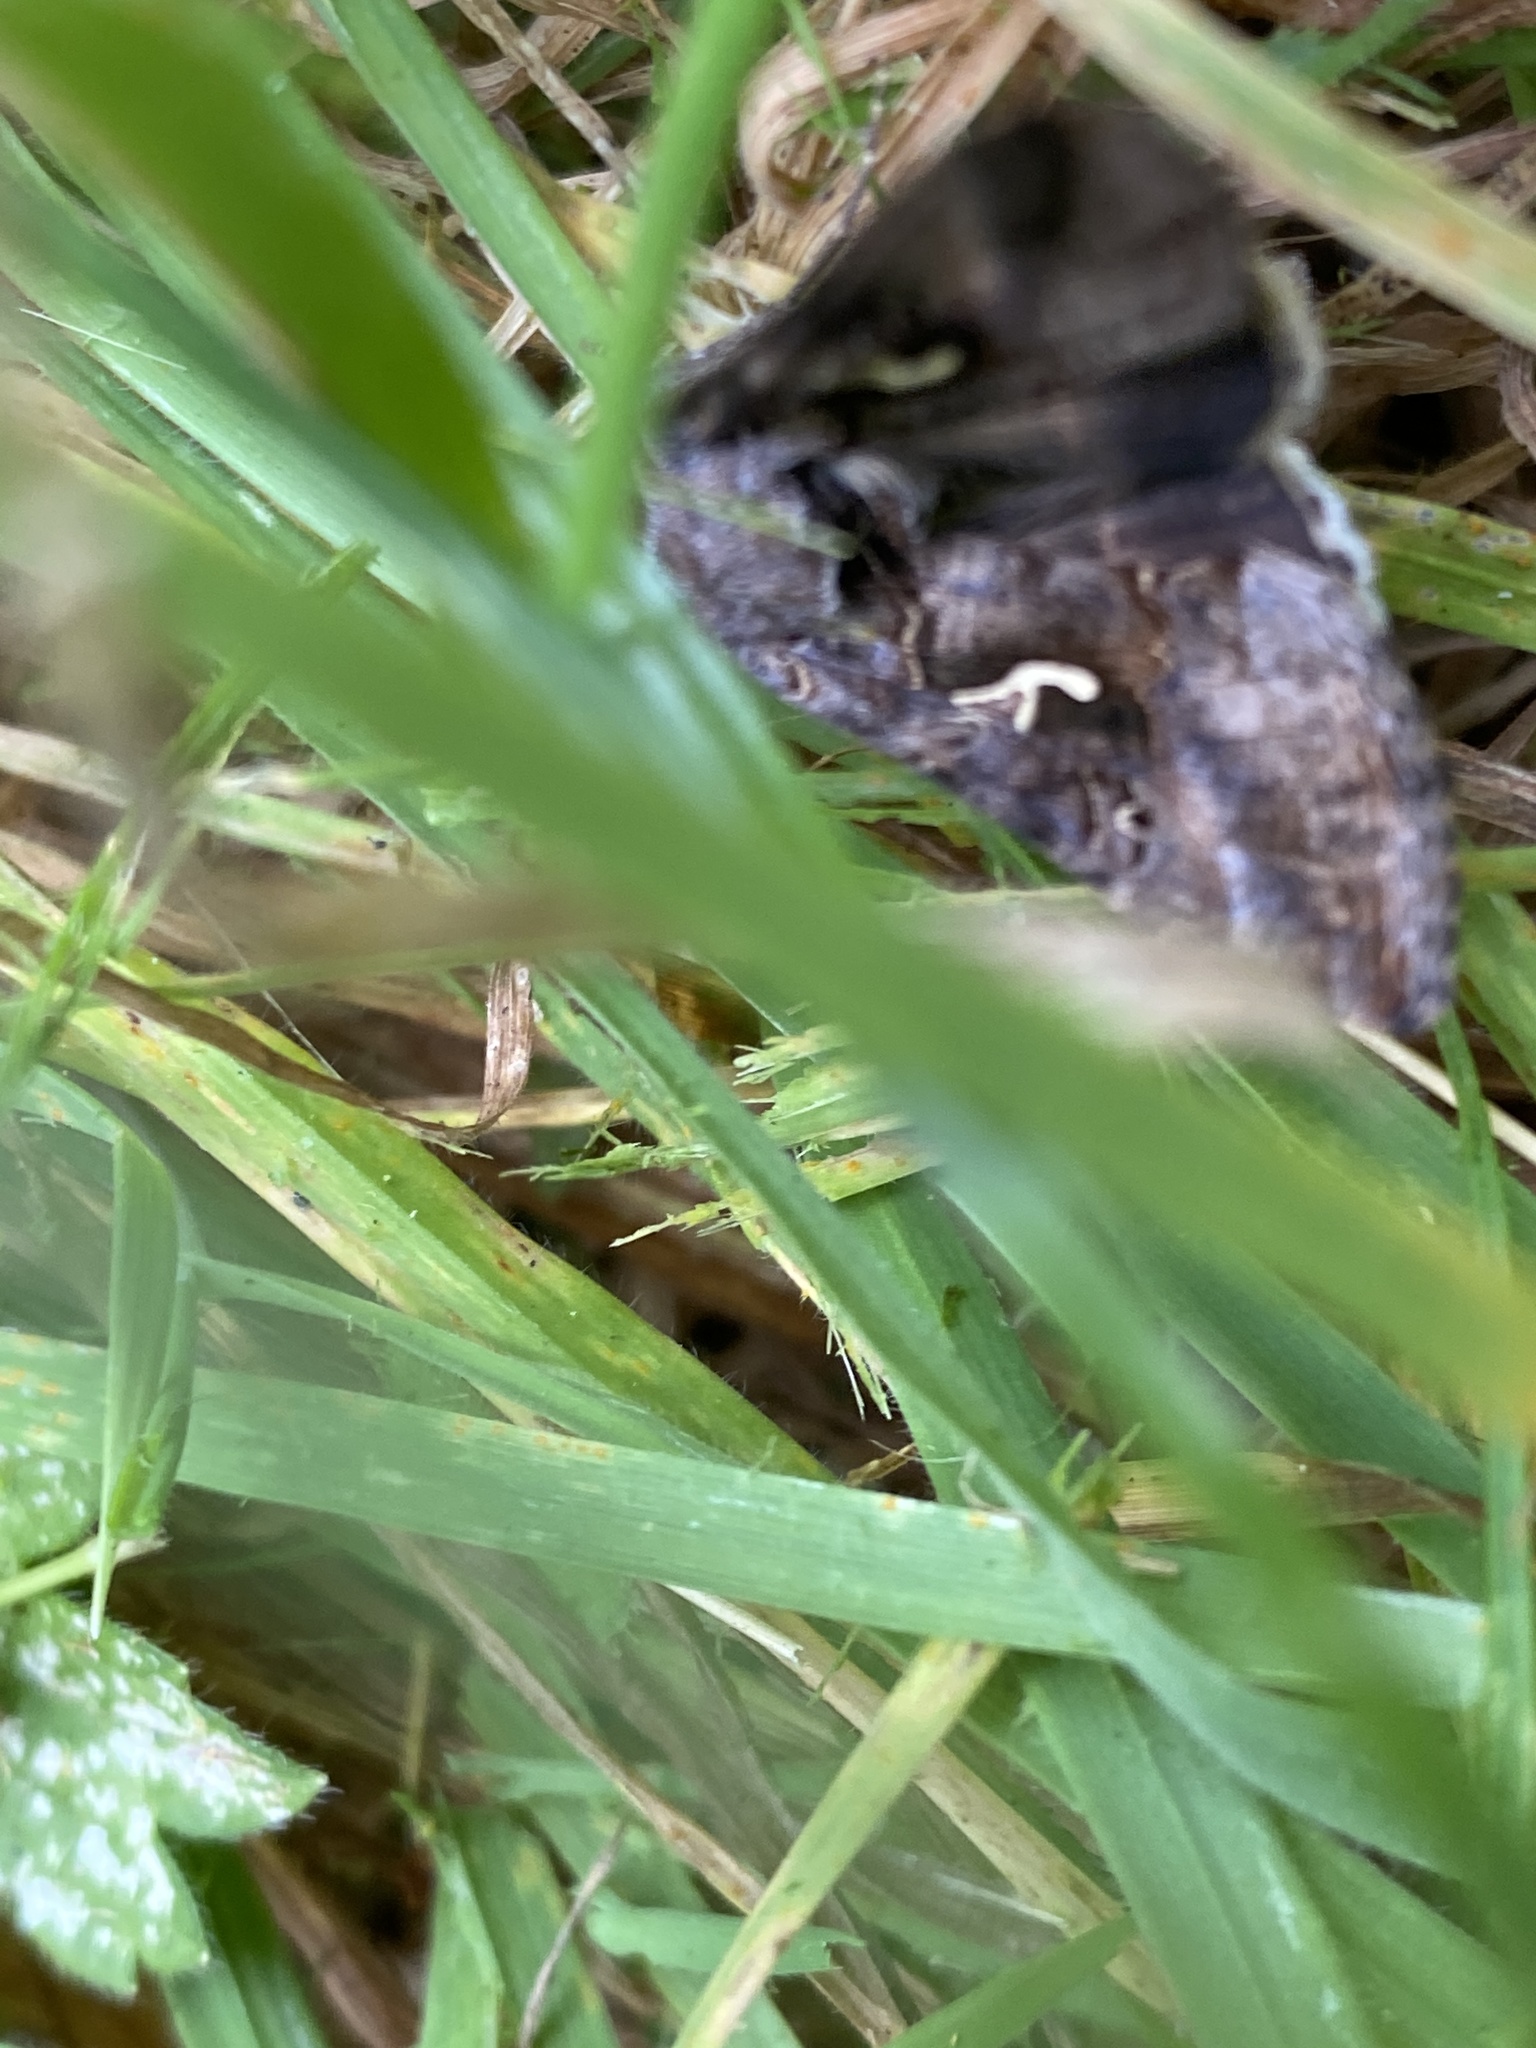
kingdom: Animalia
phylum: Arthropoda
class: Insecta
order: Lepidoptera
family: Noctuidae
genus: Autographa
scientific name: Autographa gamma
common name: Silver y
